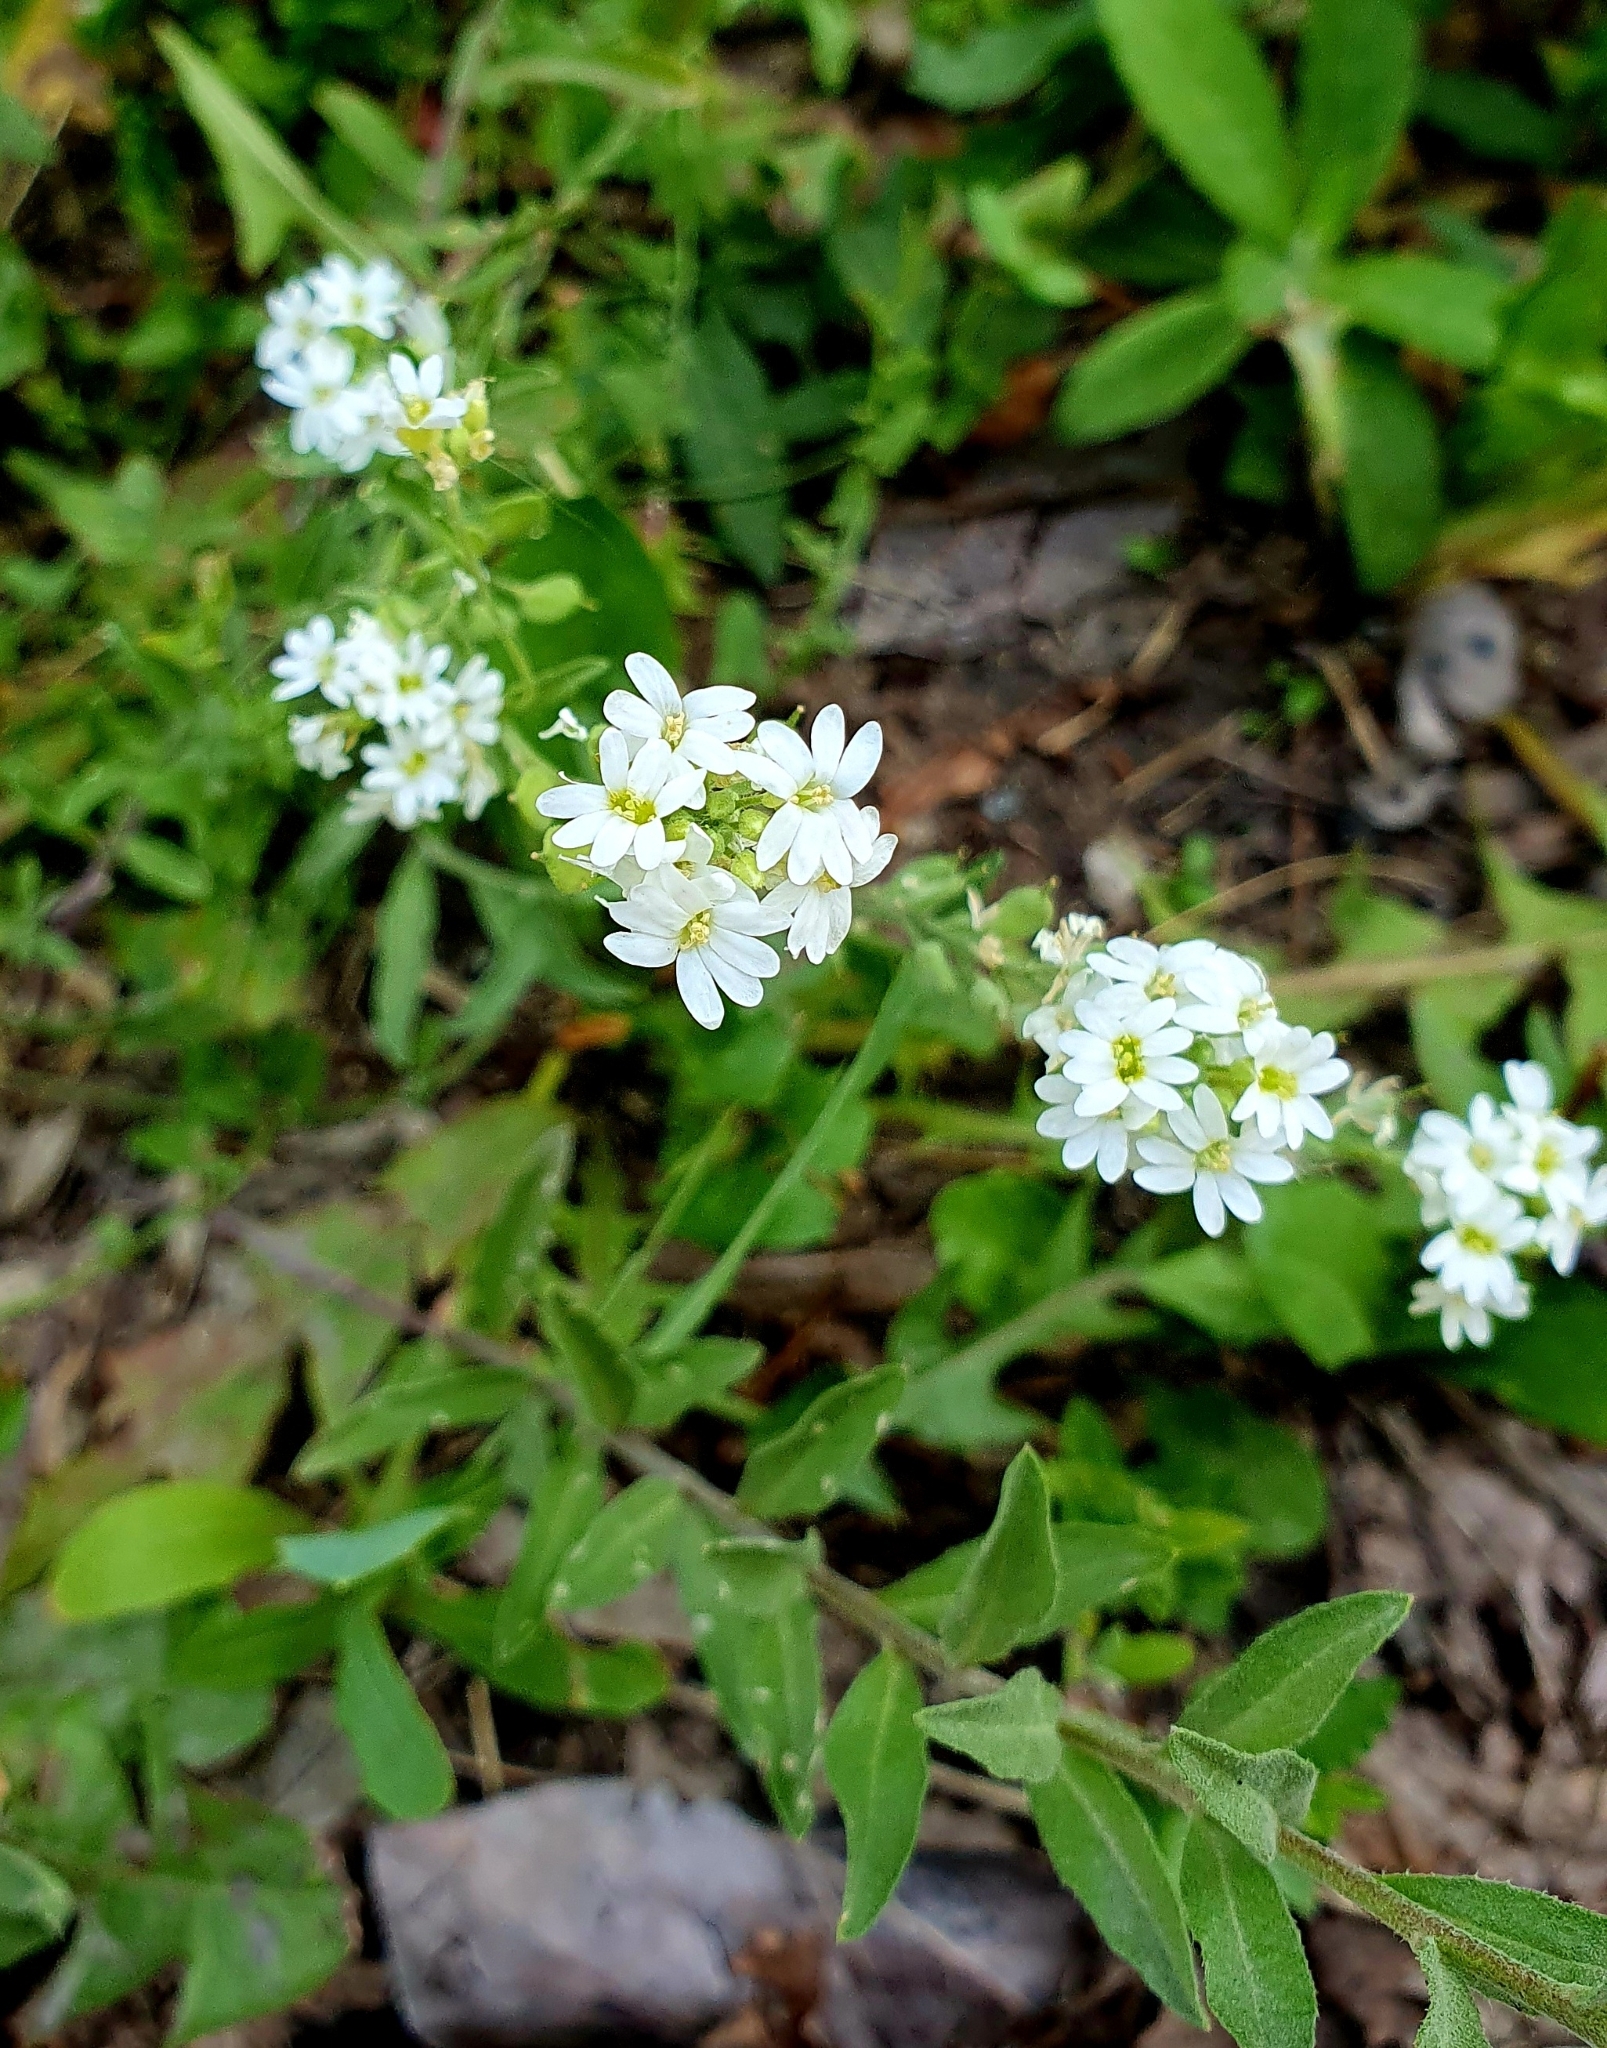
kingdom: Plantae
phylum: Tracheophyta
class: Magnoliopsida
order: Brassicales
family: Brassicaceae
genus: Berteroa
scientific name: Berteroa incana
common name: Hoary alison
